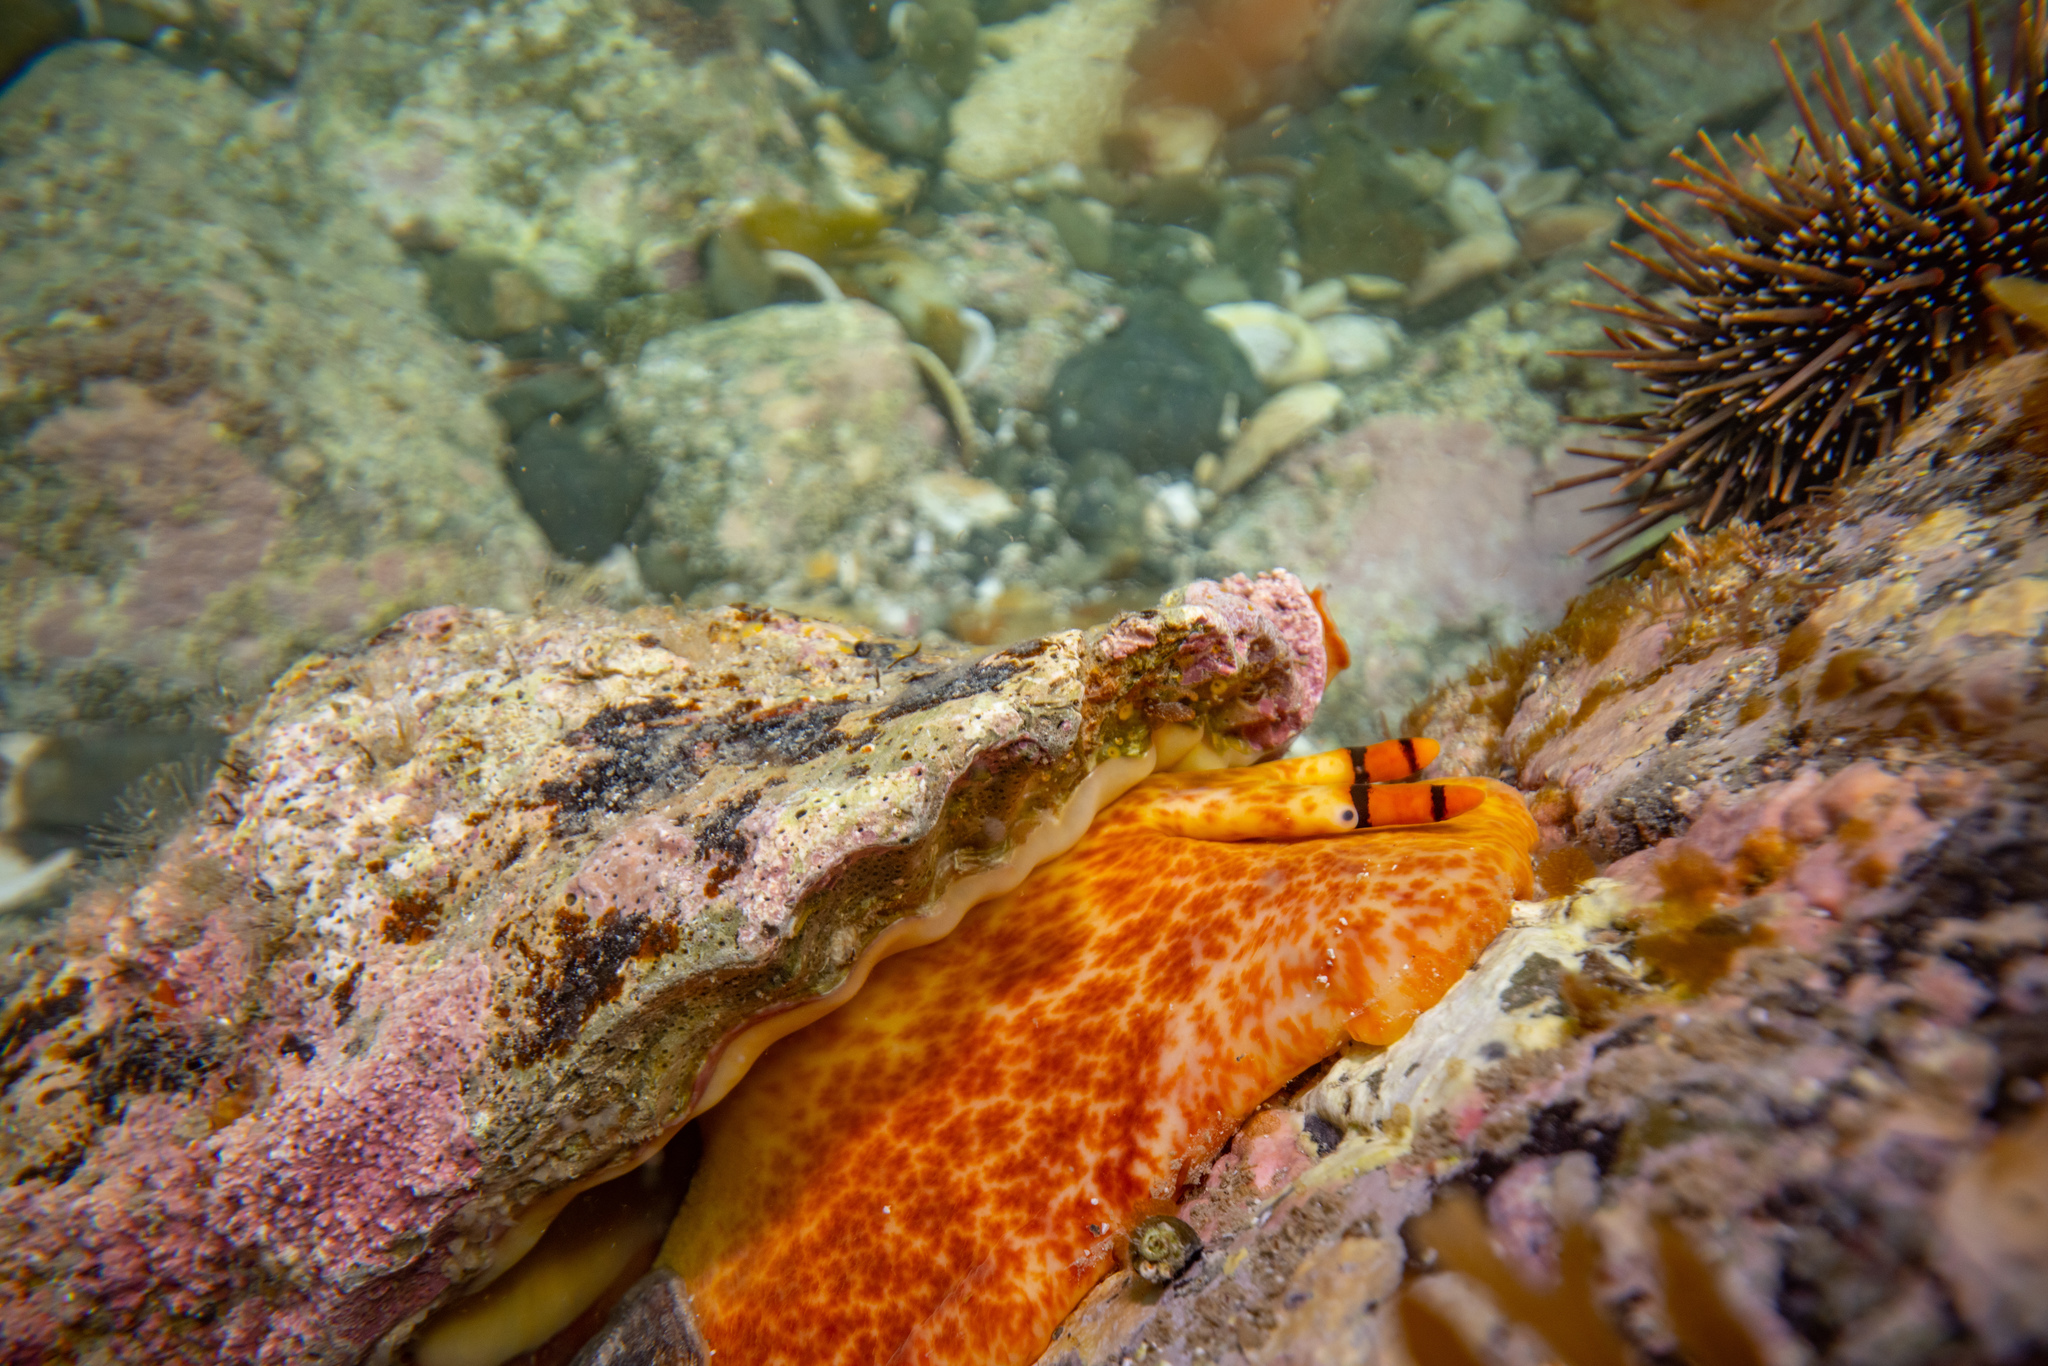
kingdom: Animalia
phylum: Mollusca
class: Gastropoda
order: Littorinimorpha
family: Charoniidae
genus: Charonia
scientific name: Charonia lampas
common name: Knobbed triton
